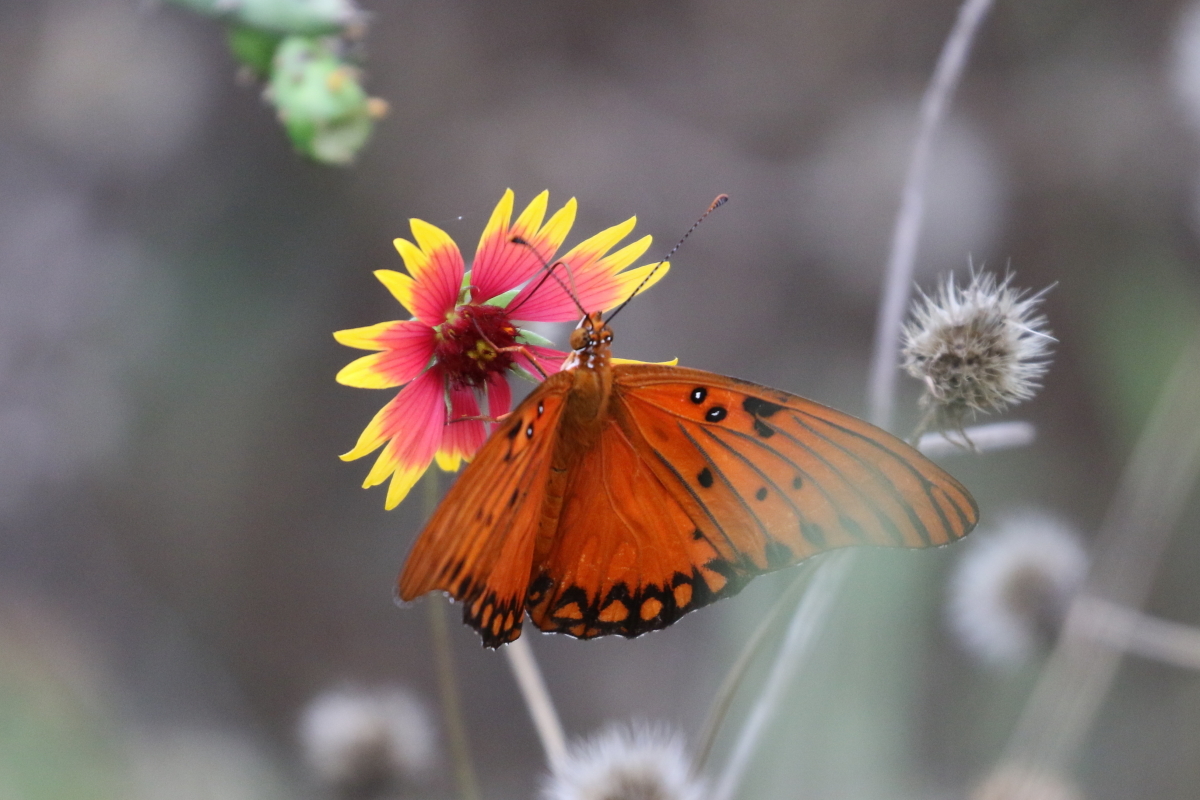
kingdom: Animalia
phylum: Arthropoda
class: Insecta
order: Lepidoptera
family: Nymphalidae
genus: Dione
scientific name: Dione vanillae
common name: Gulf fritillary
